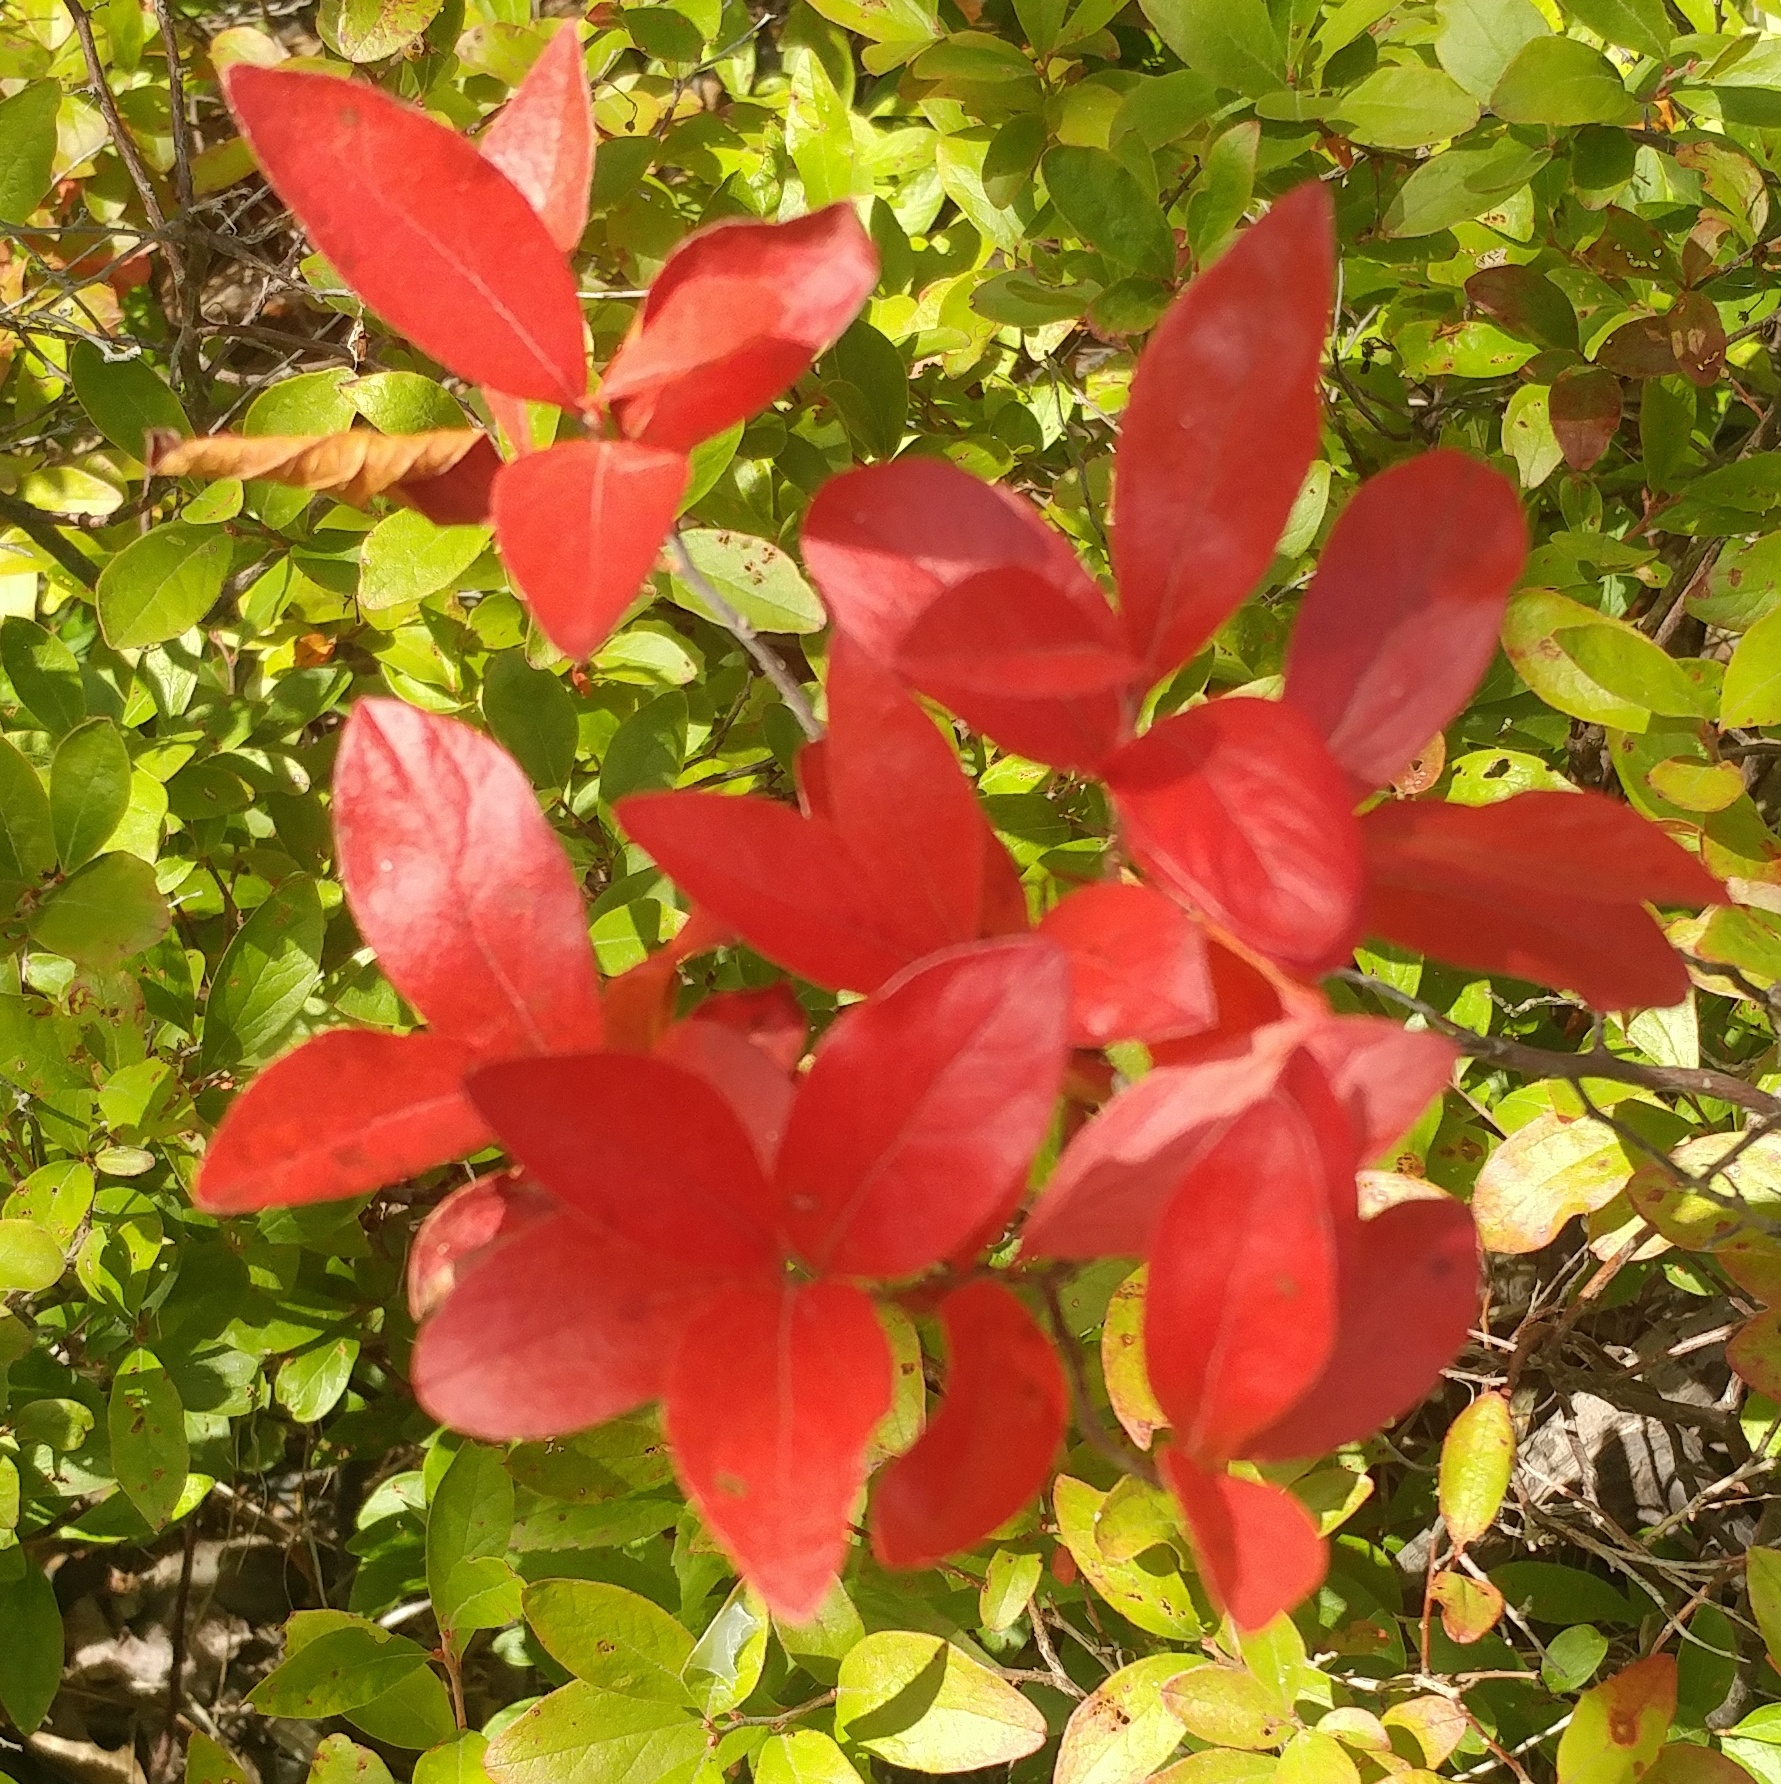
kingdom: Plantae
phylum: Tracheophyta
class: Magnoliopsida
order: Ericales
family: Ericaceae
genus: Gaylussacia
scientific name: Gaylussacia baccata
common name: Black huckleberry
